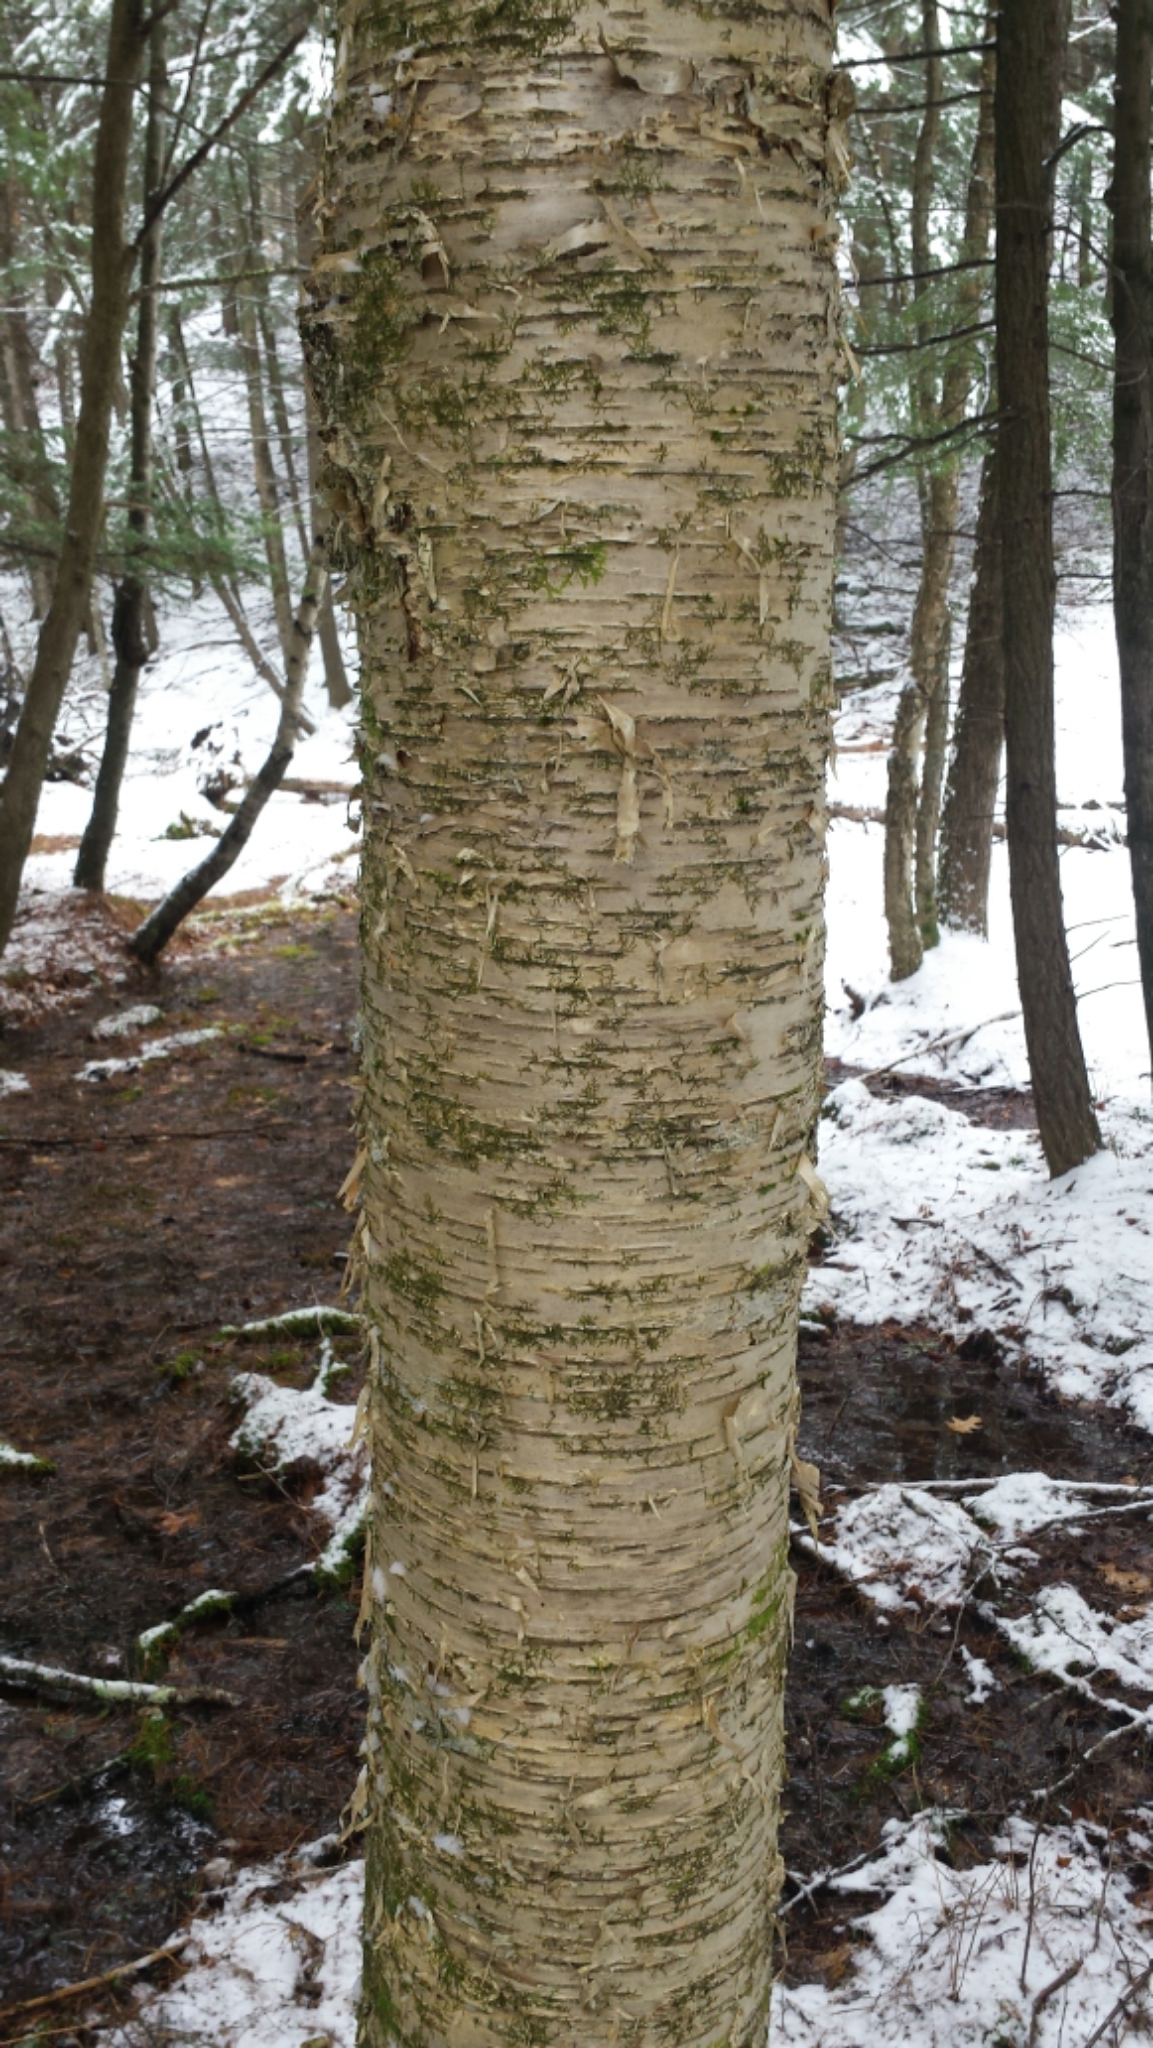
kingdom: Plantae
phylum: Tracheophyta
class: Magnoliopsida
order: Fagales
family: Betulaceae
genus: Betula
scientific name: Betula alleghaniensis
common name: Yellow birch
